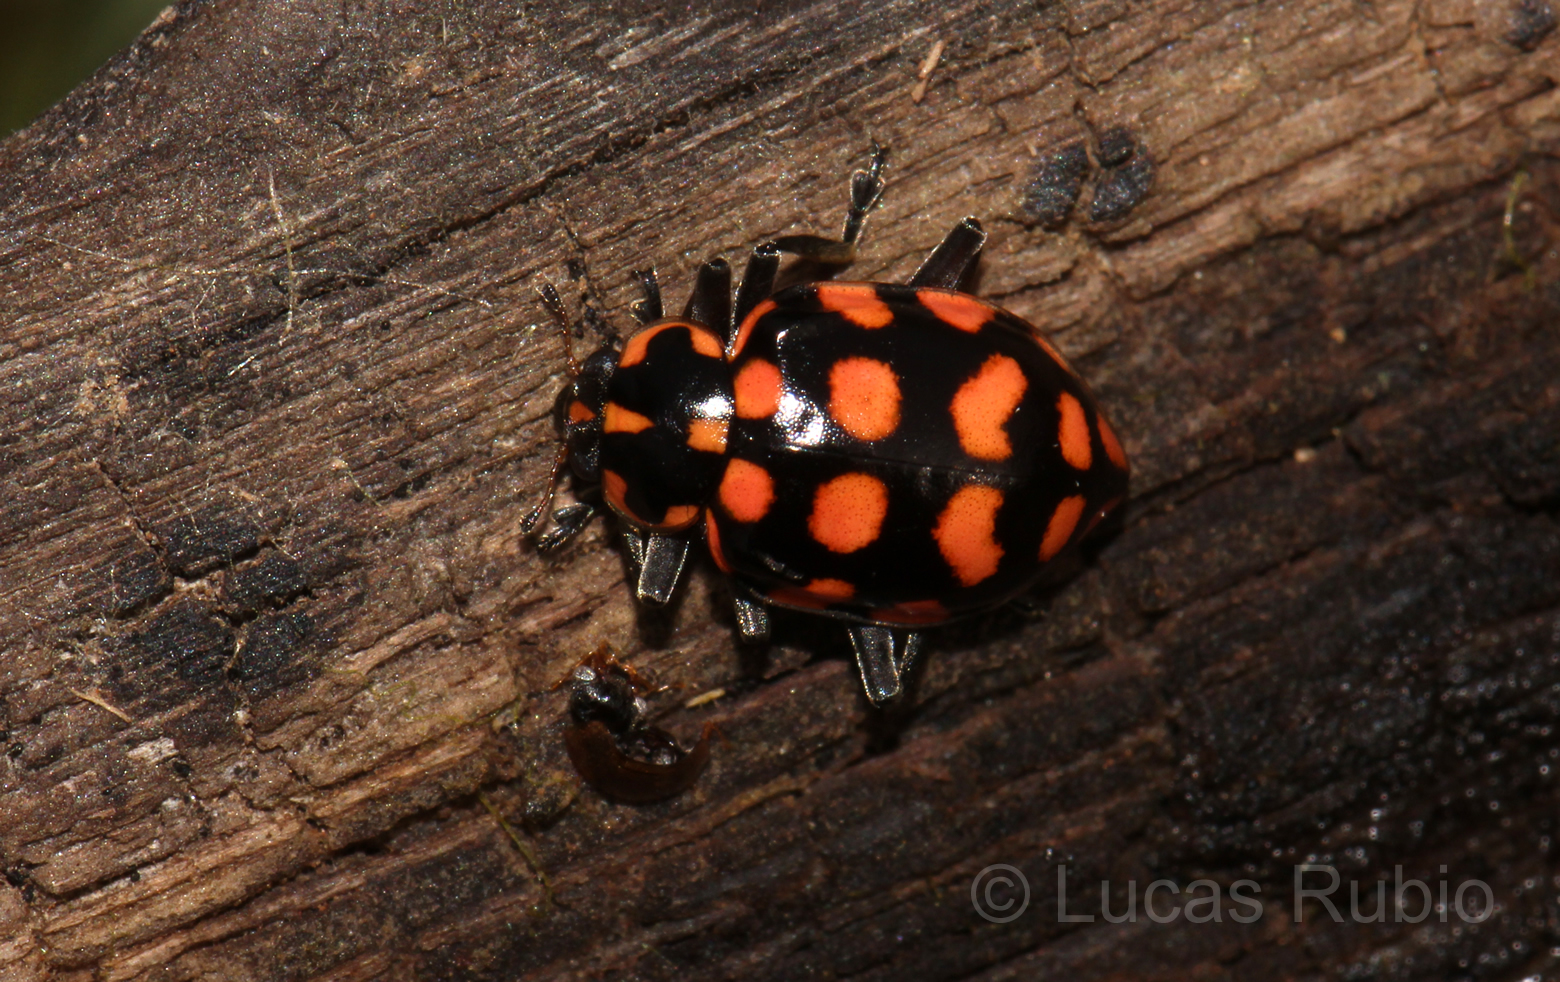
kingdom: Animalia
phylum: Arthropoda
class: Insecta
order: Coleoptera
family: Coccinellidae
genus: Coleomegilla
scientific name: Coleomegilla
